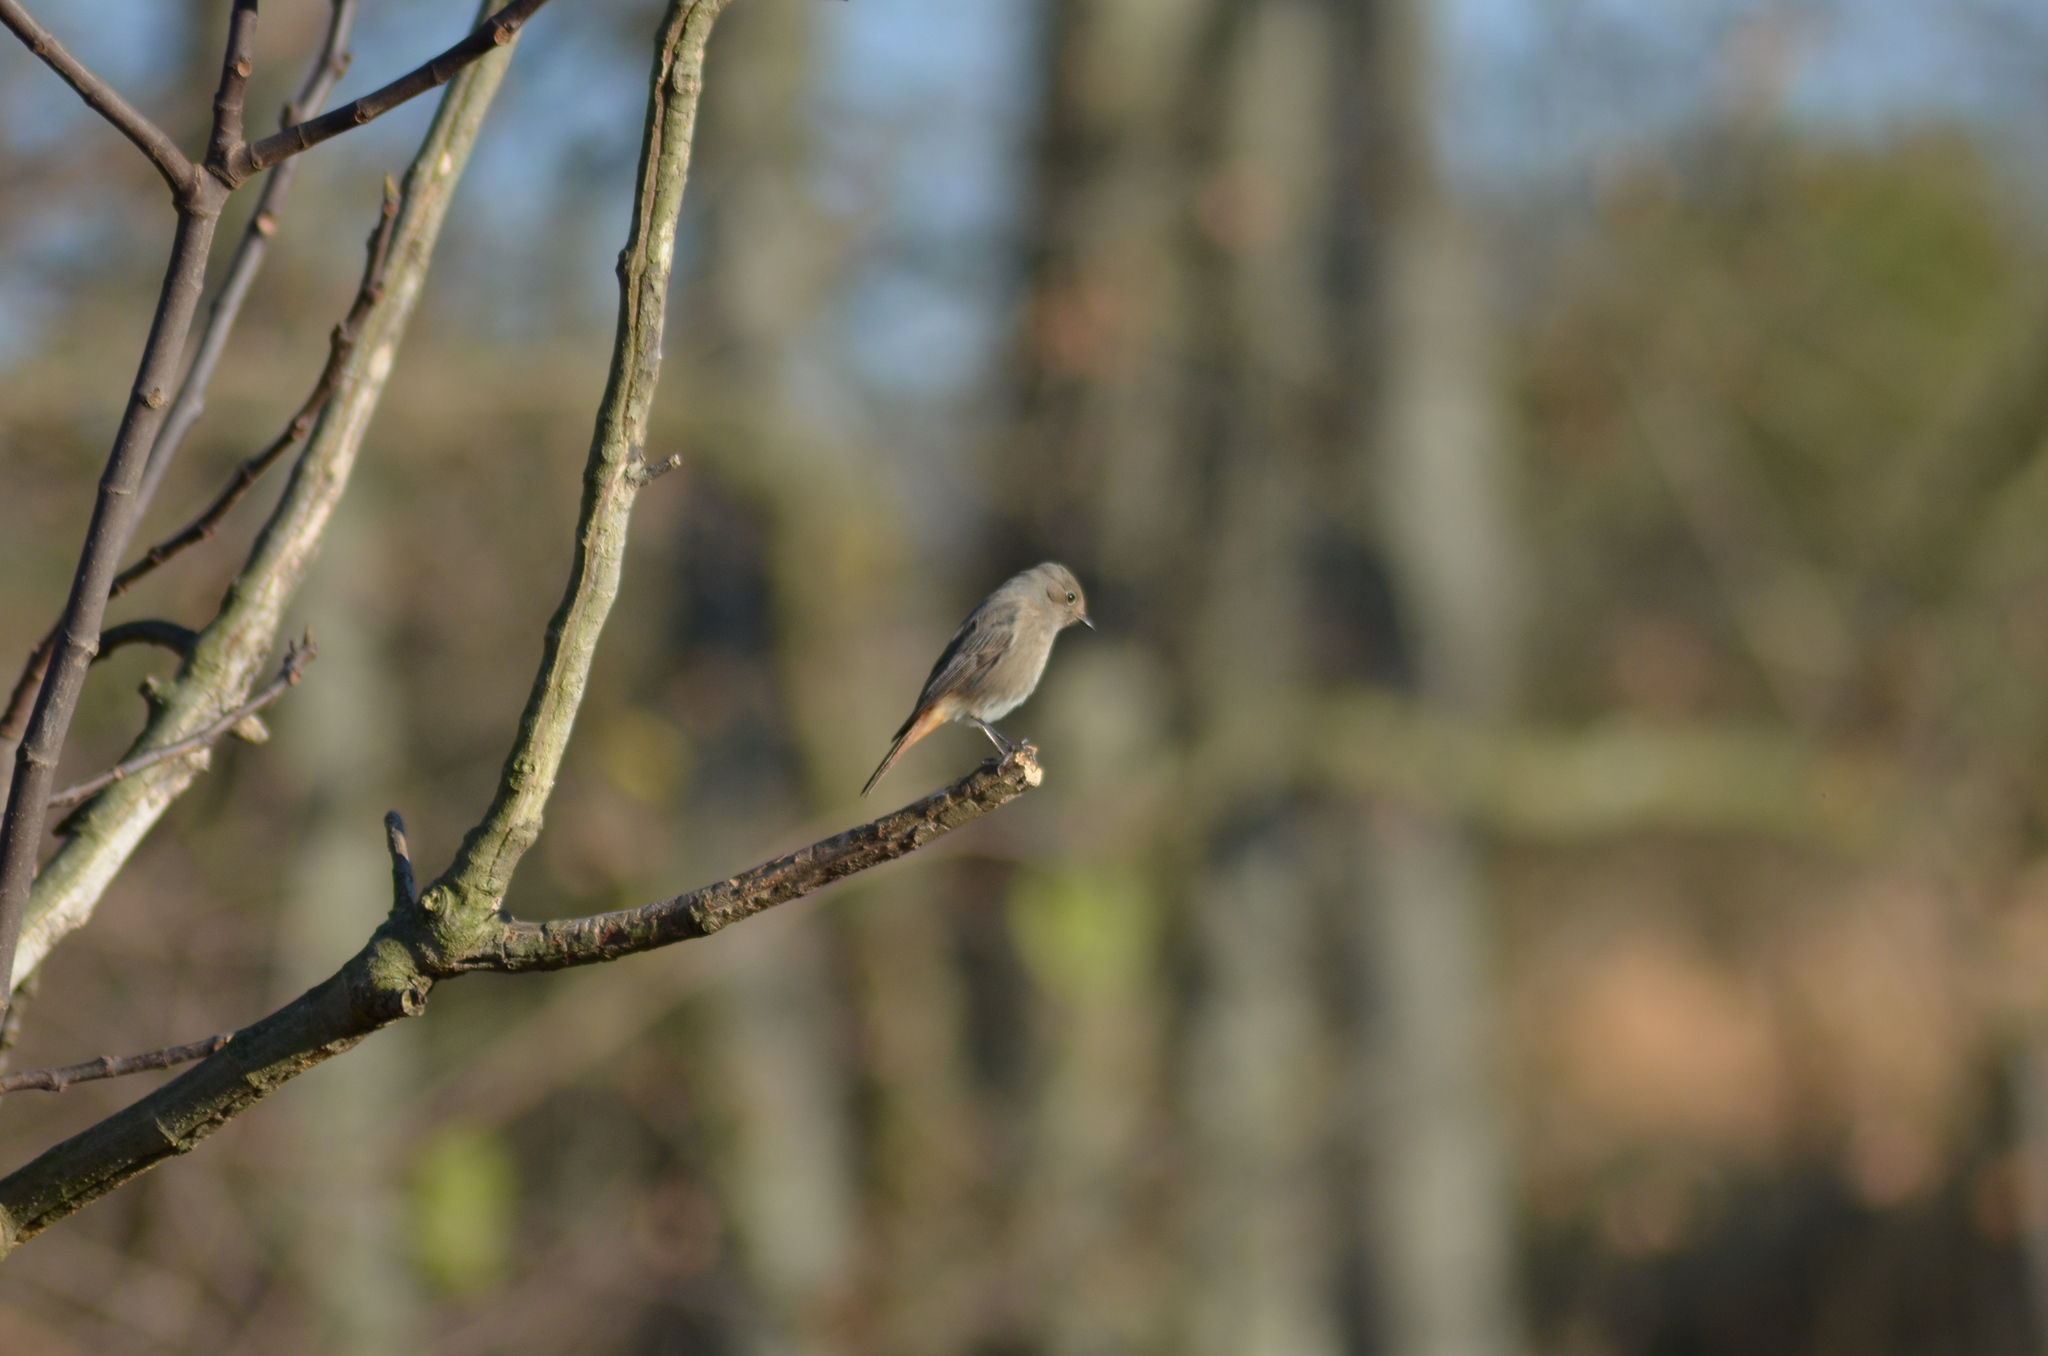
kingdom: Animalia
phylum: Chordata
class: Aves
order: Passeriformes
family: Muscicapidae
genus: Phoenicurus
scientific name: Phoenicurus ochruros
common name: Black redstart
